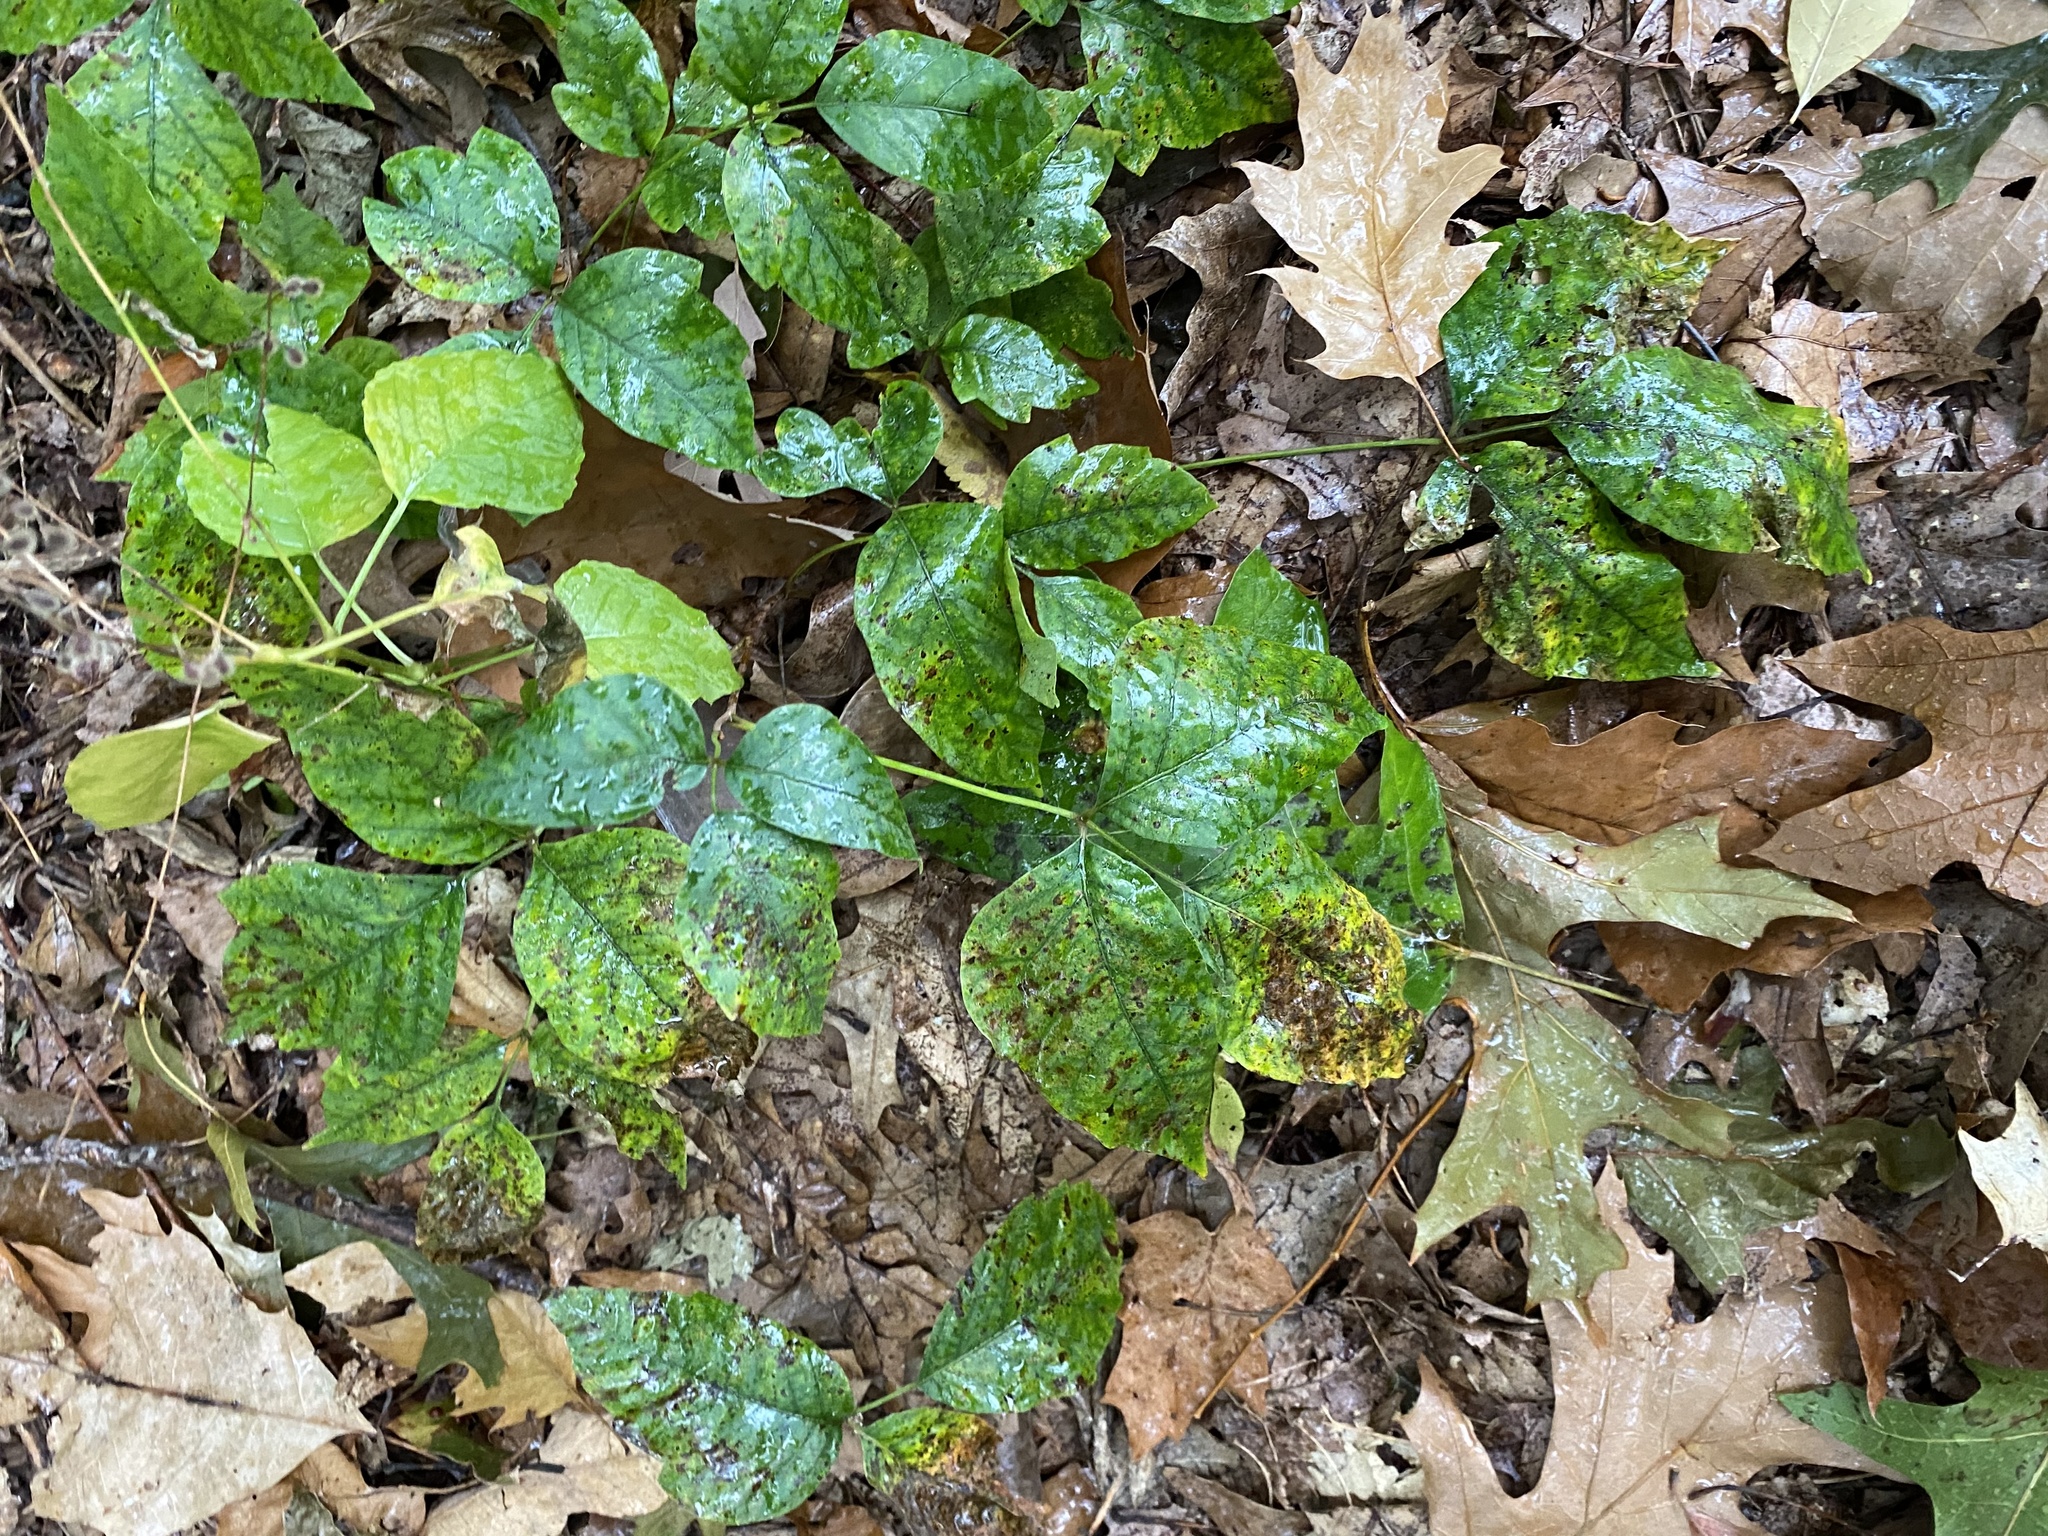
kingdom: Plantae
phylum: Tracheophyta
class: Magnoliopsida
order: Sapindales
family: Anacardiaceae
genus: Toxicodendron
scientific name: Toxicodendron radicans
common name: Poison ivy
